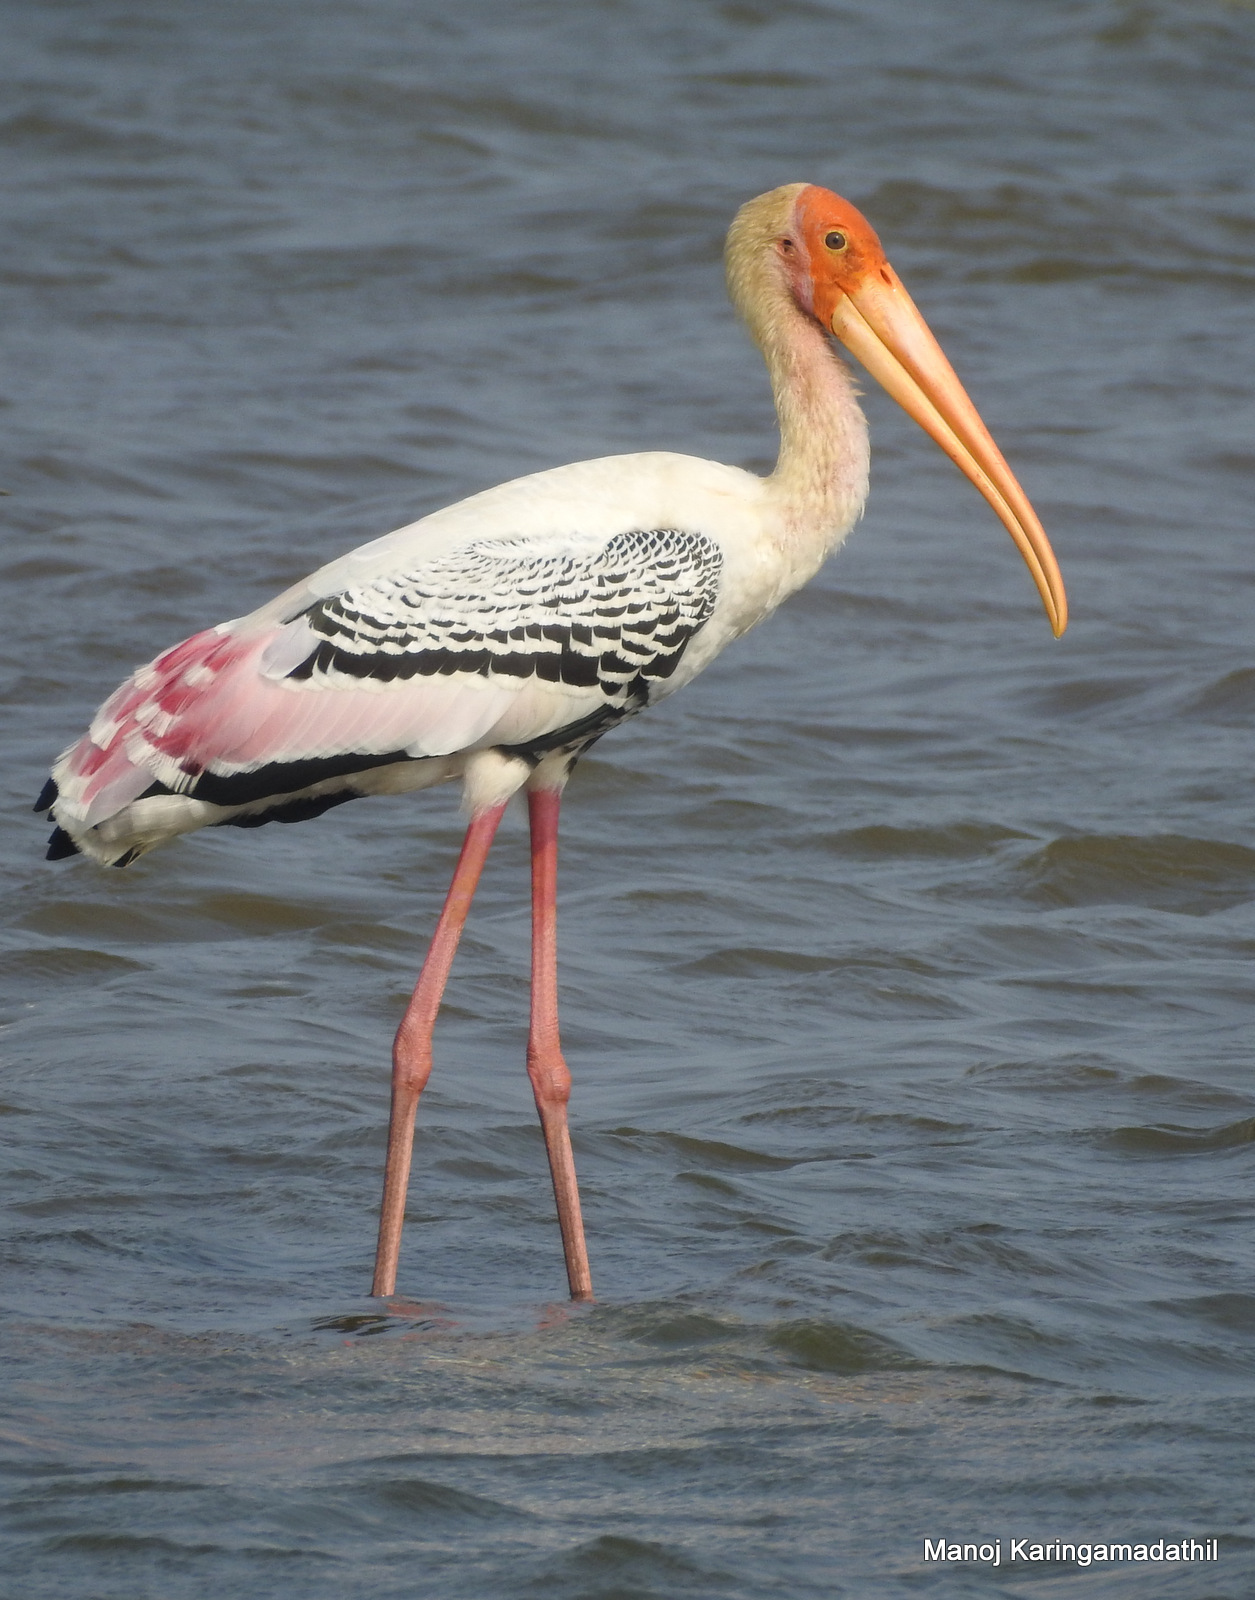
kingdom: Animalia
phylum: Chordata
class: Aves
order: Ciconiiformes
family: Ciconiidae
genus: Mycteria
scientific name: Mycteria leucocephala
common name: Painted stork
